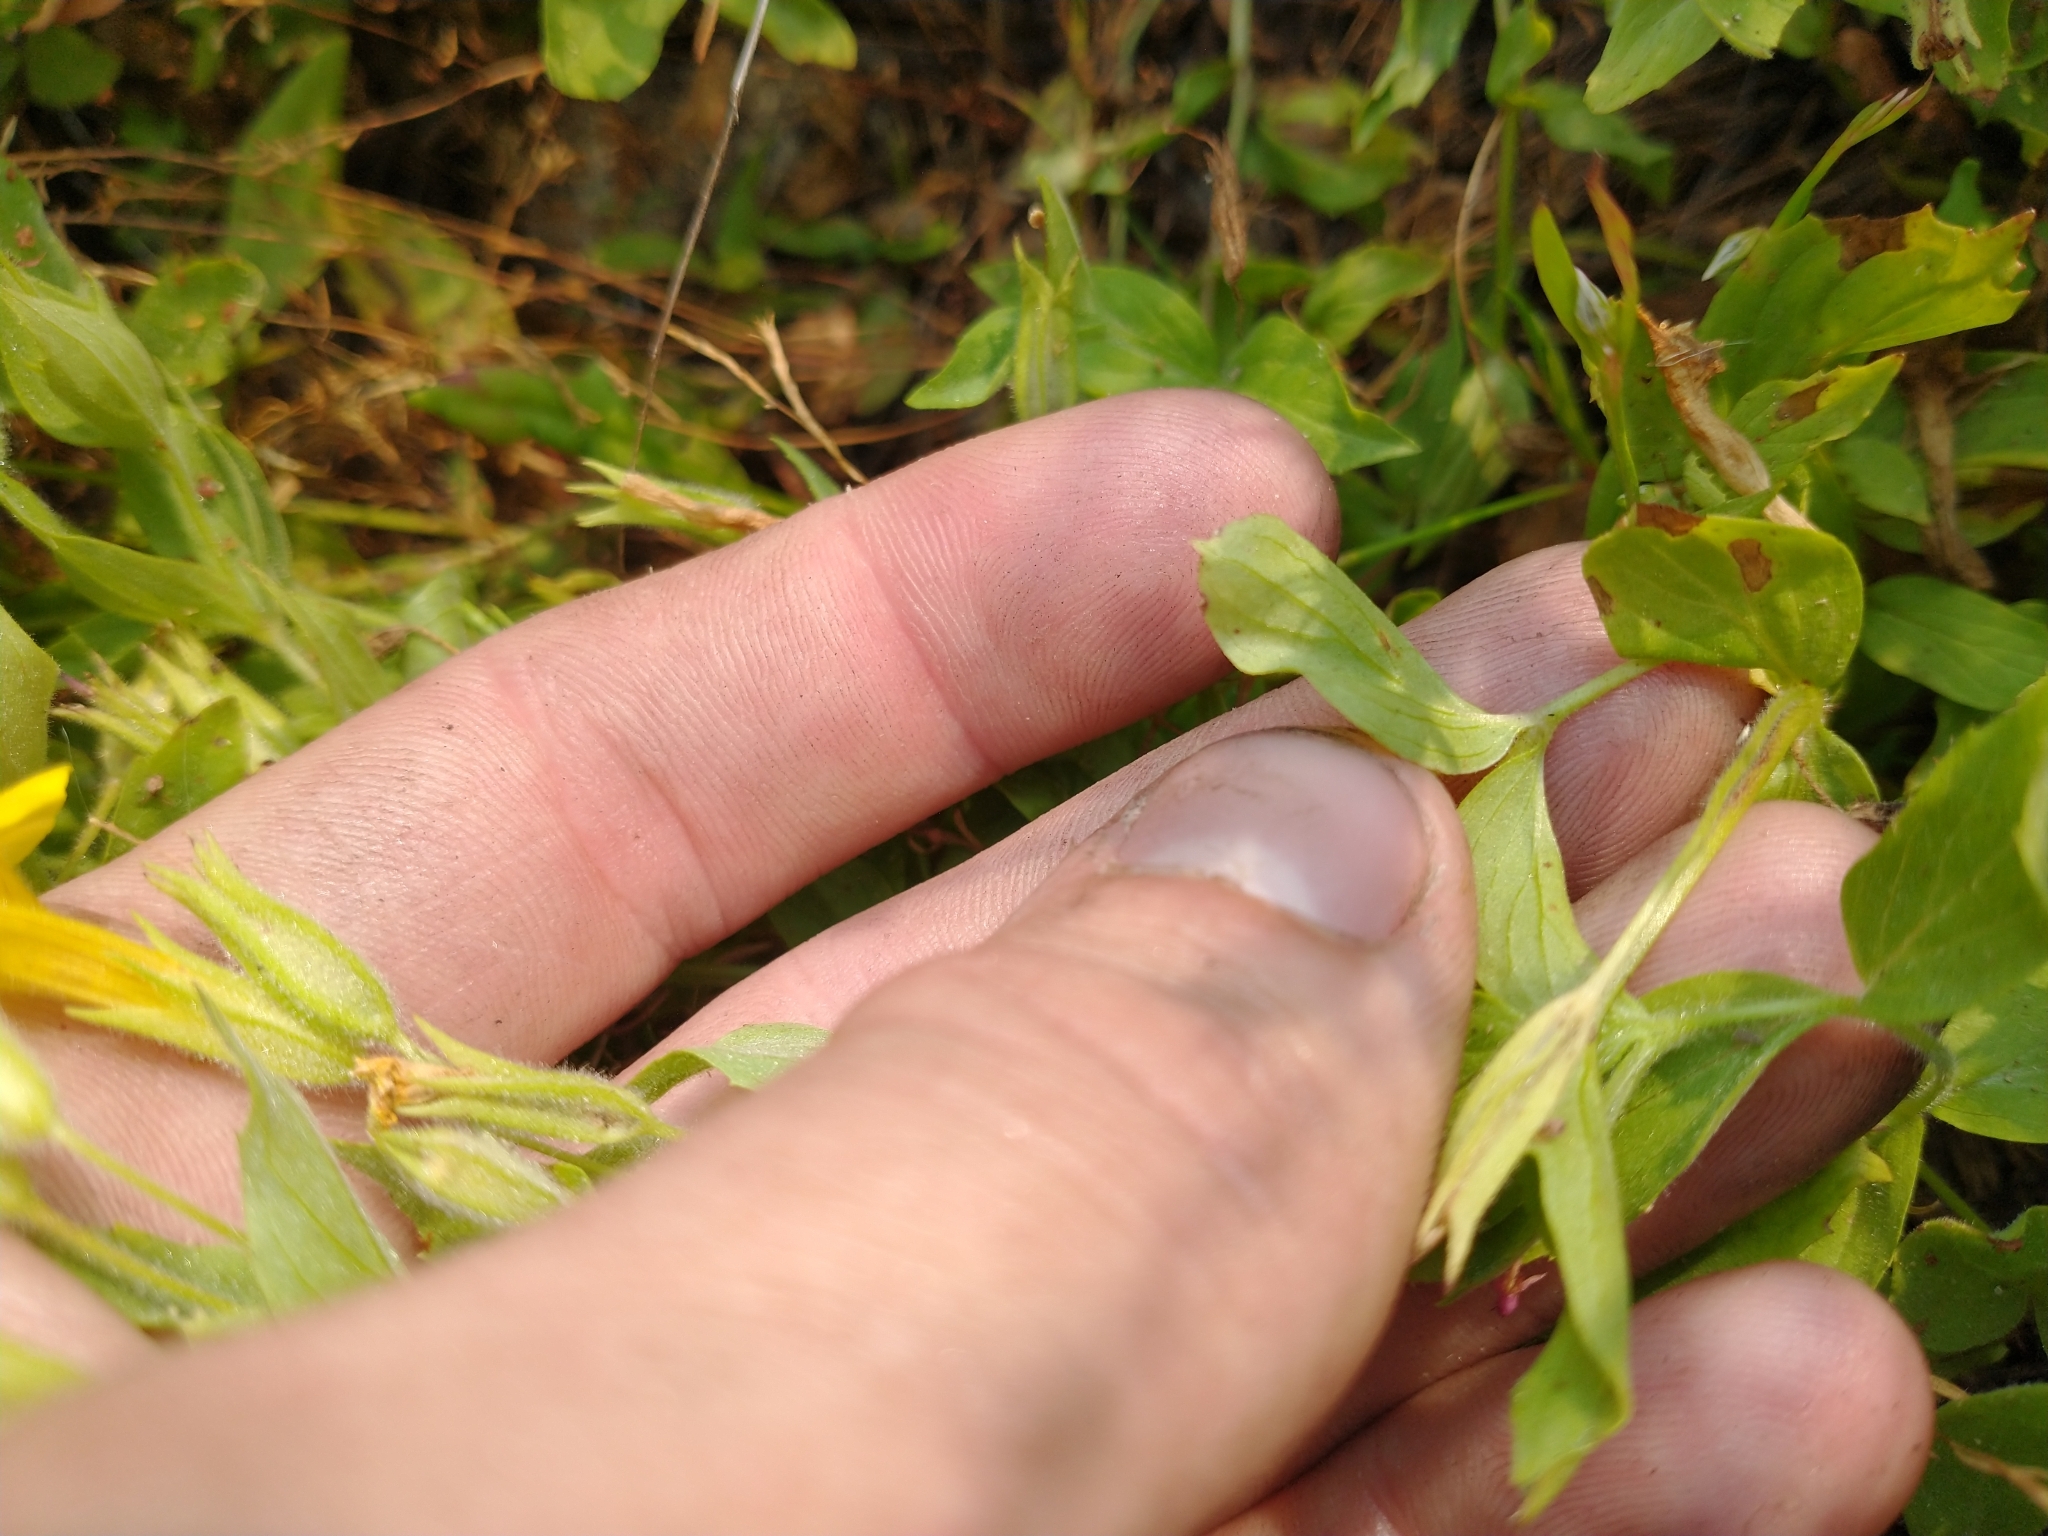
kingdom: Plantae
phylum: Tracheophyta
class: Magnoliopsida
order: Lamiales
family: Phrymaceae
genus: Erythranthe
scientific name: Erythranthe moschata
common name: Muskflower
